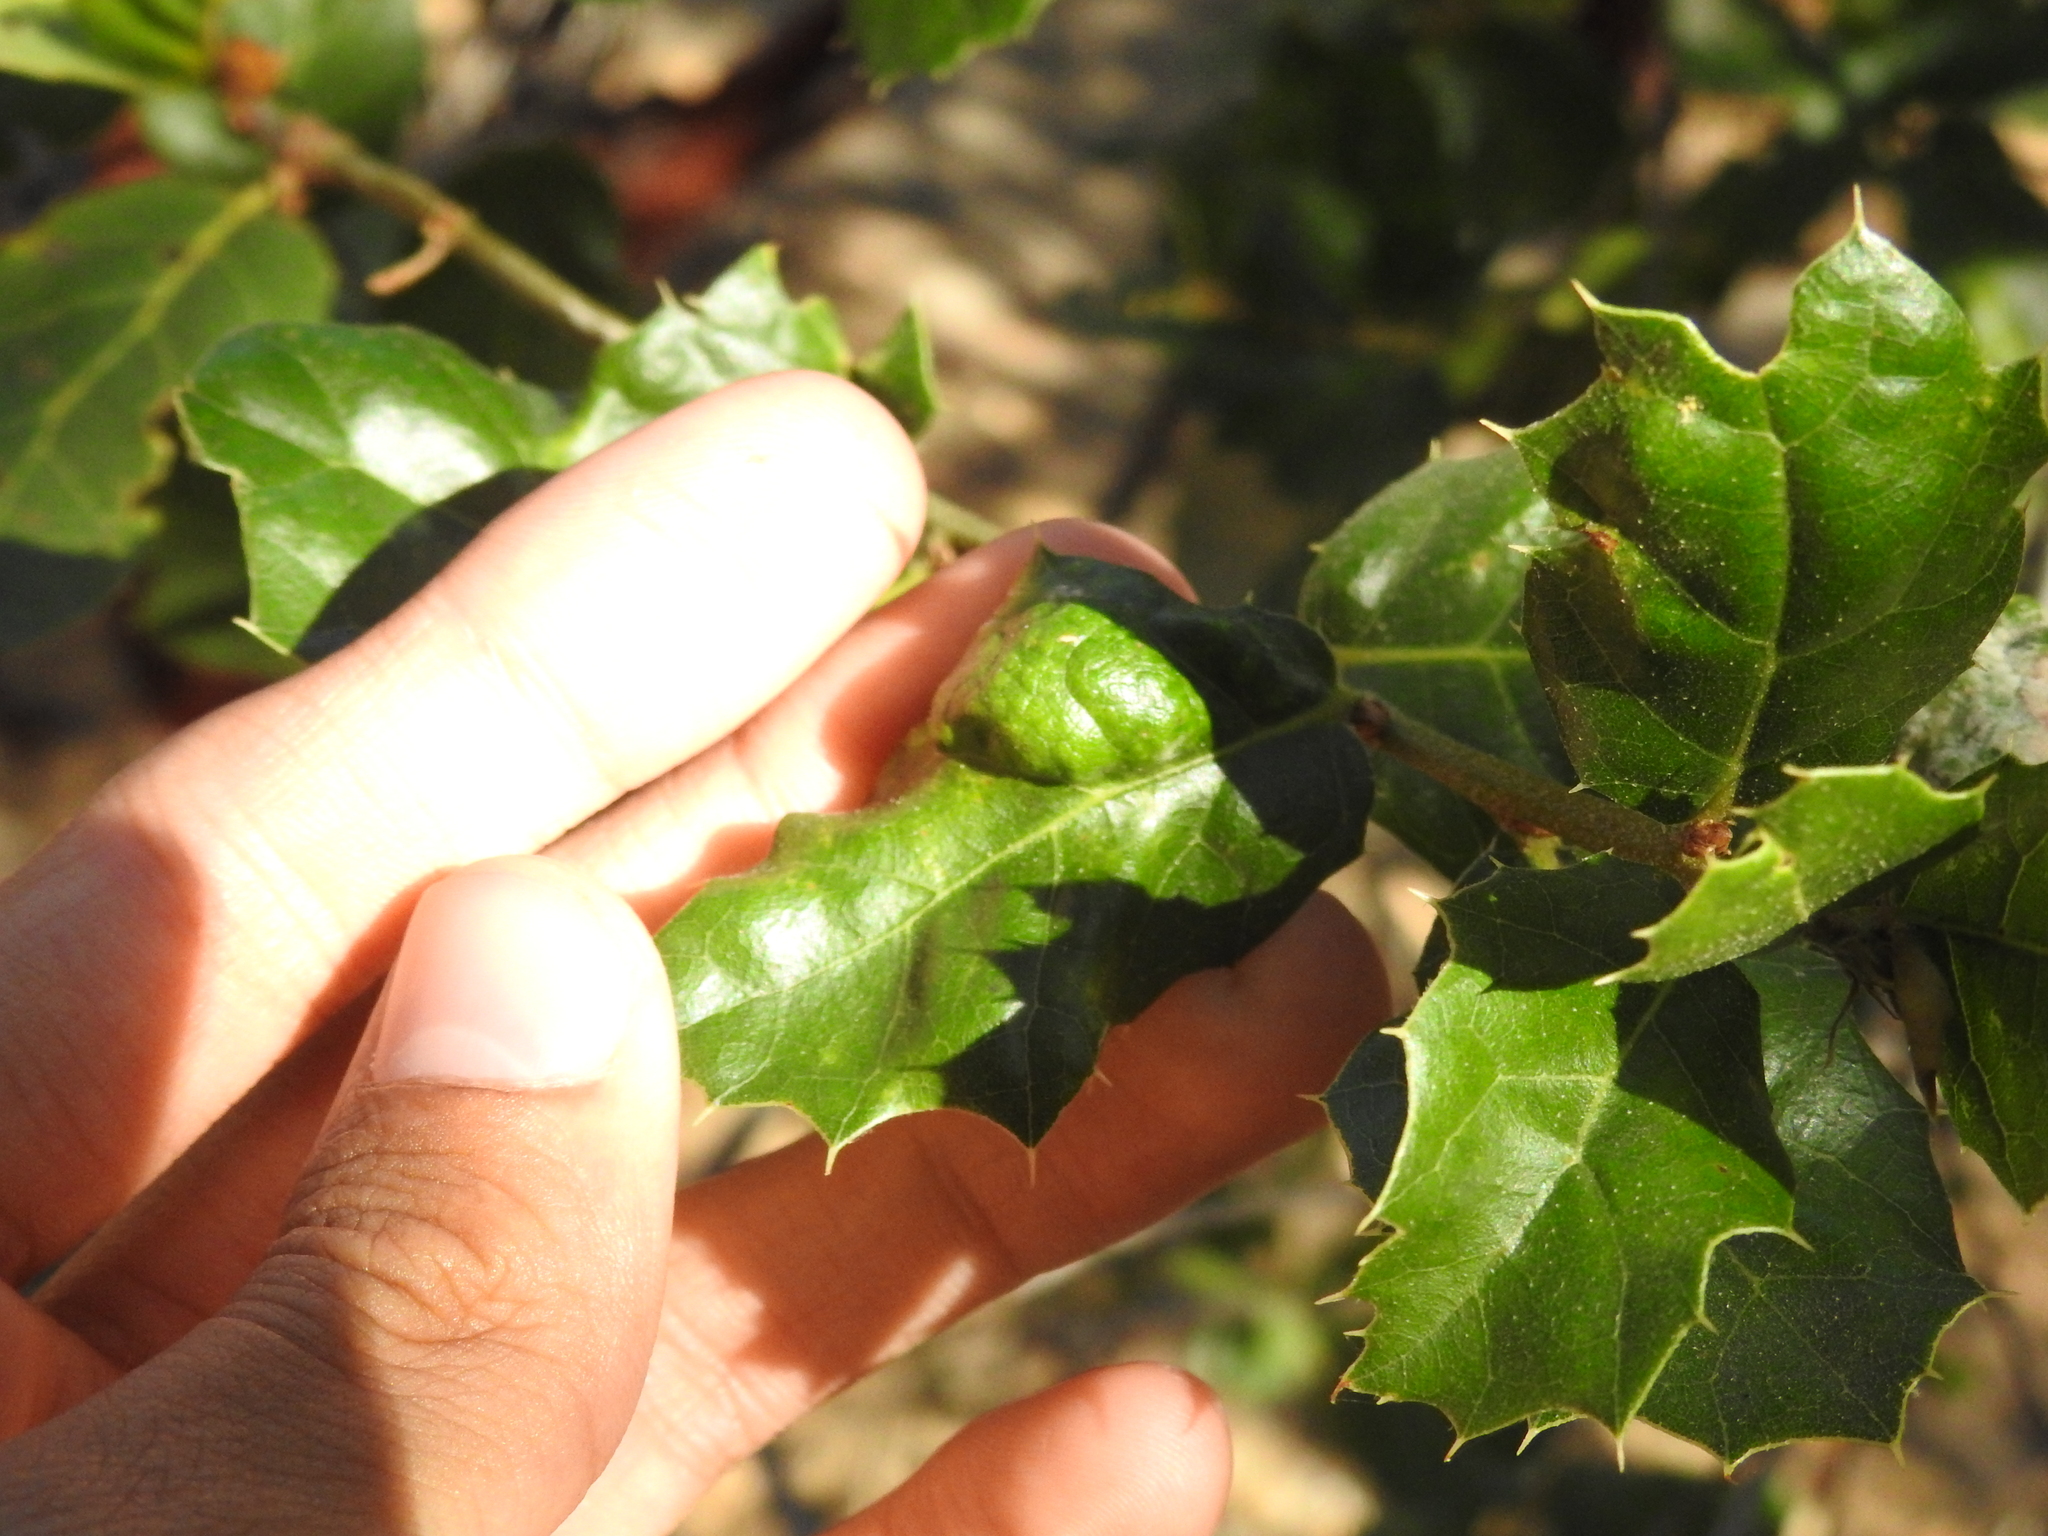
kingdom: Fungi
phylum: Ascomycota
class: Taphrinomycetes
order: Taphrinales
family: Taphrinaceae
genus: Taphrina
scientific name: Taphrina caerulescens
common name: Oak leaf blister
